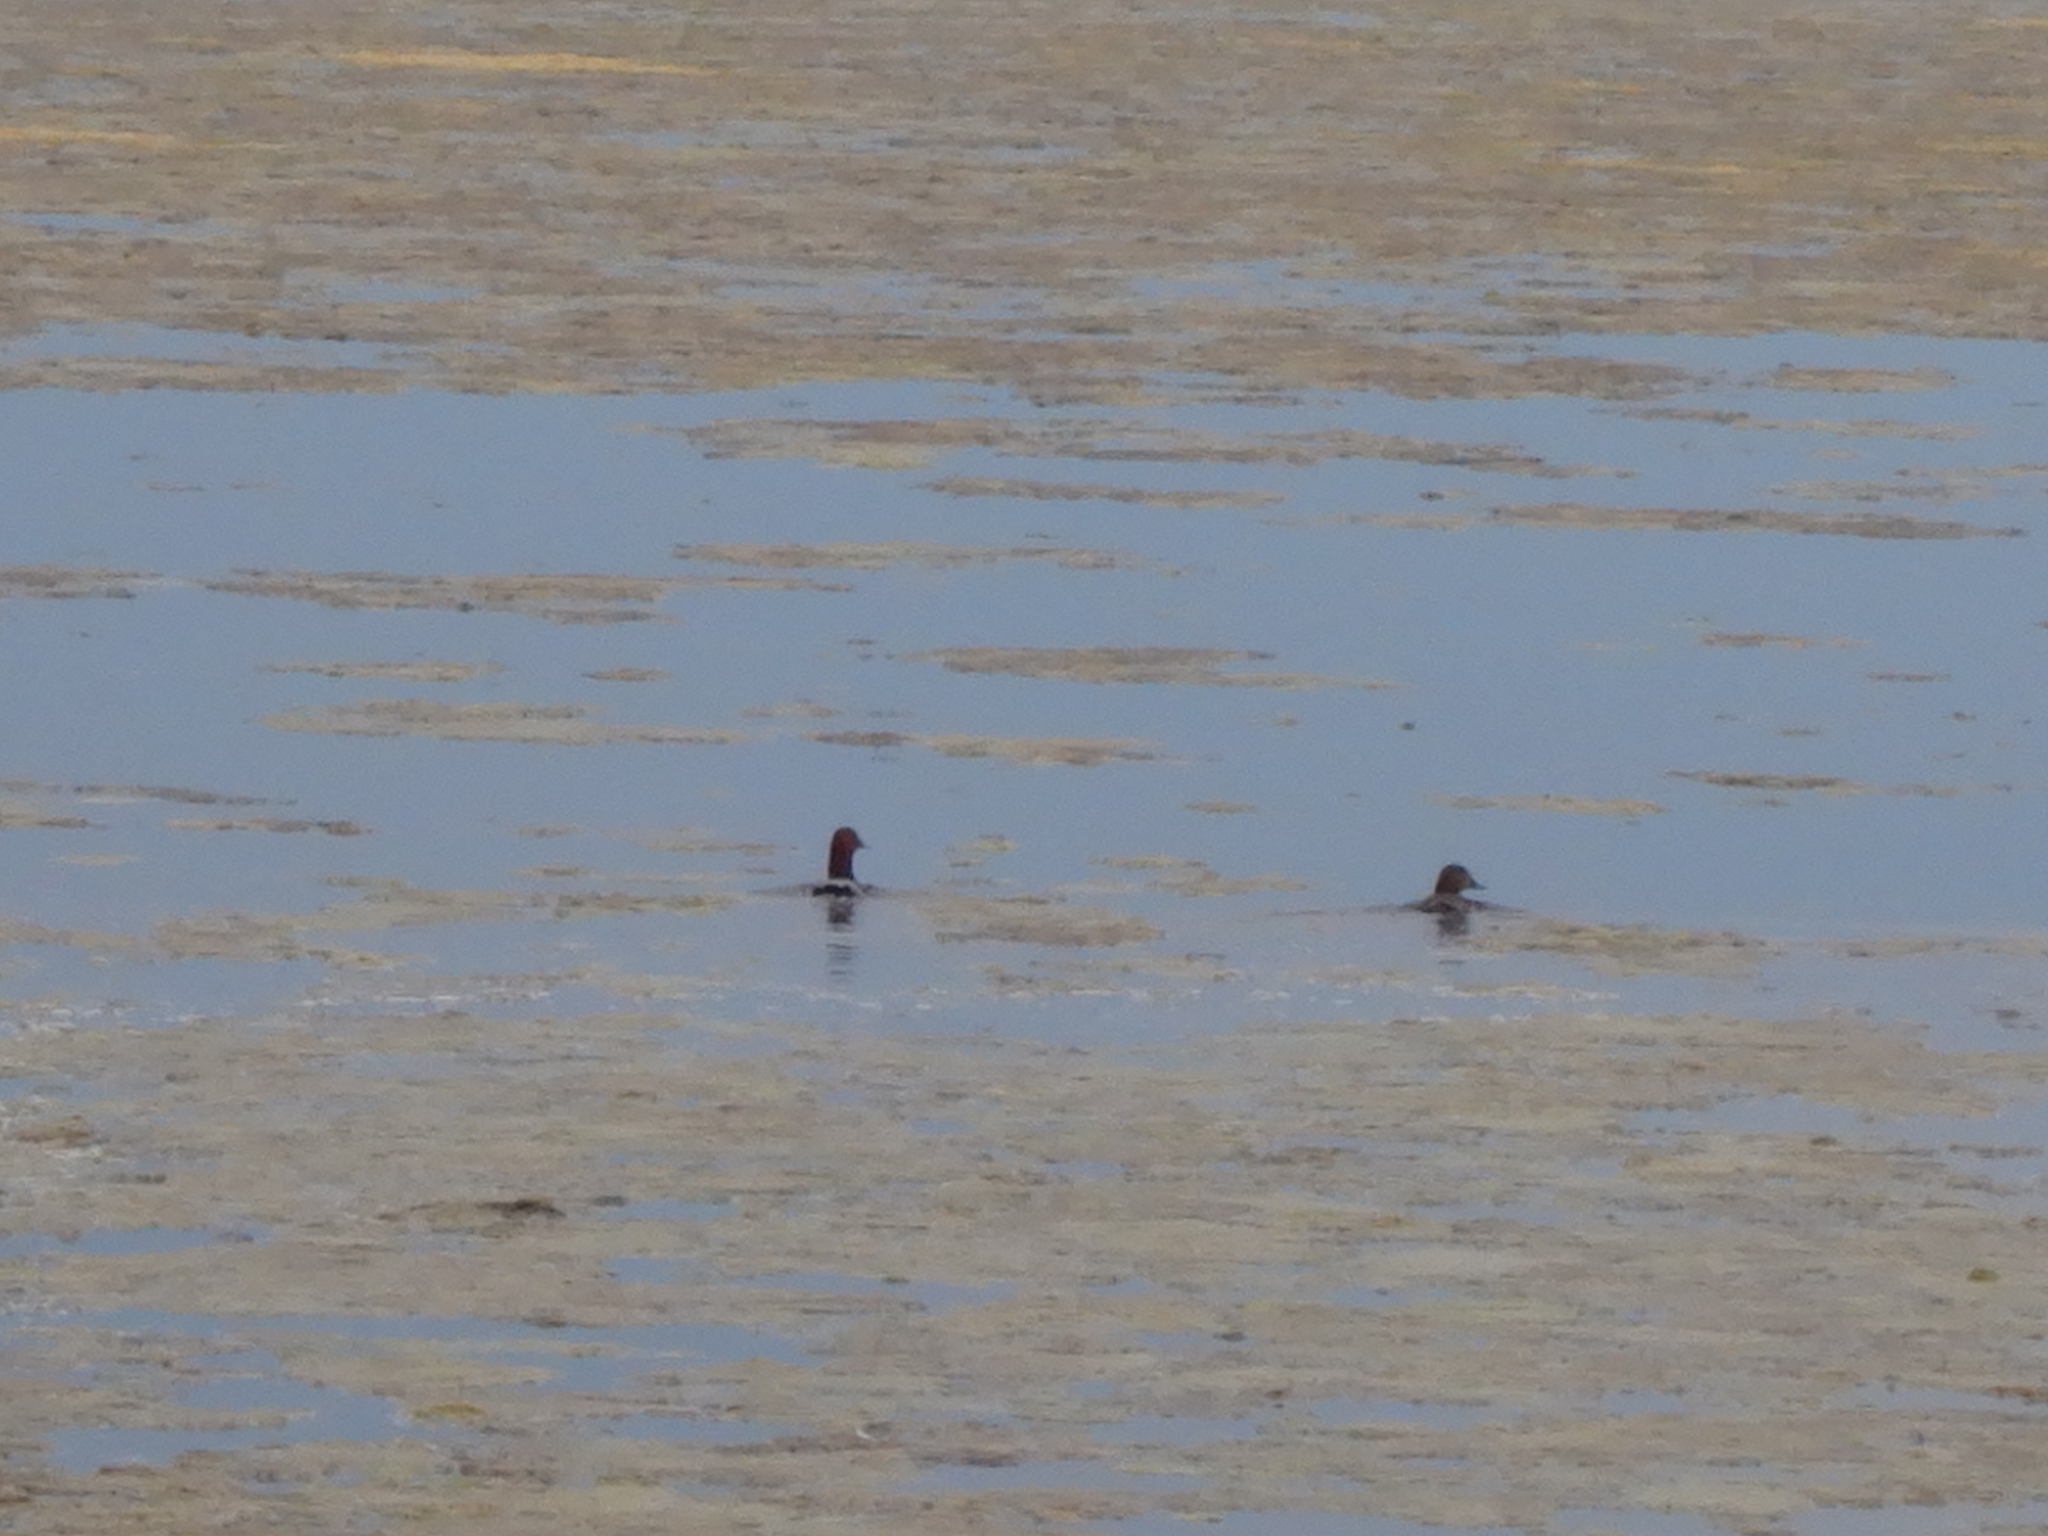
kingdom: Animalia
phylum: Chordata
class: Aves
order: Anseriformes
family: Anatidae
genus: Aythya
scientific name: Aythya ferina
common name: Common pochard
